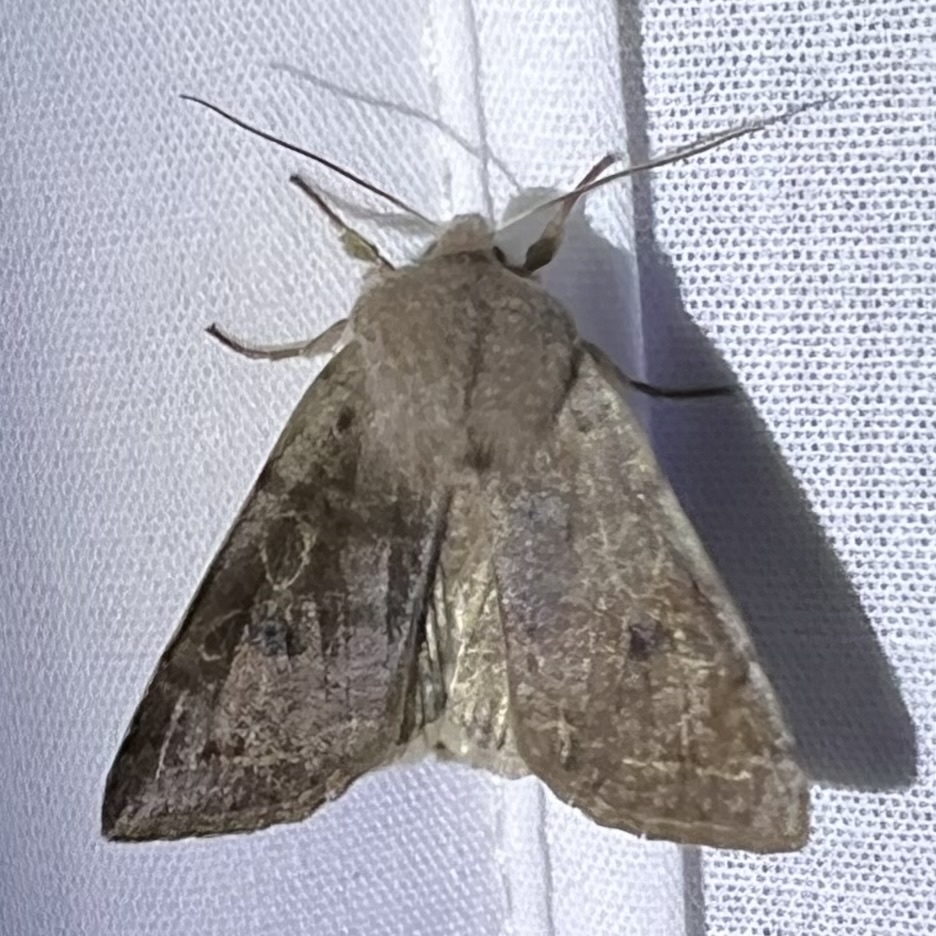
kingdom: Animalia
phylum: Arthropoda
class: Insecta
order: Lepidoptera
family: Noctuidae
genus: Orthosia
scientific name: Orthosia hibisci
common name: Green fruitworm
